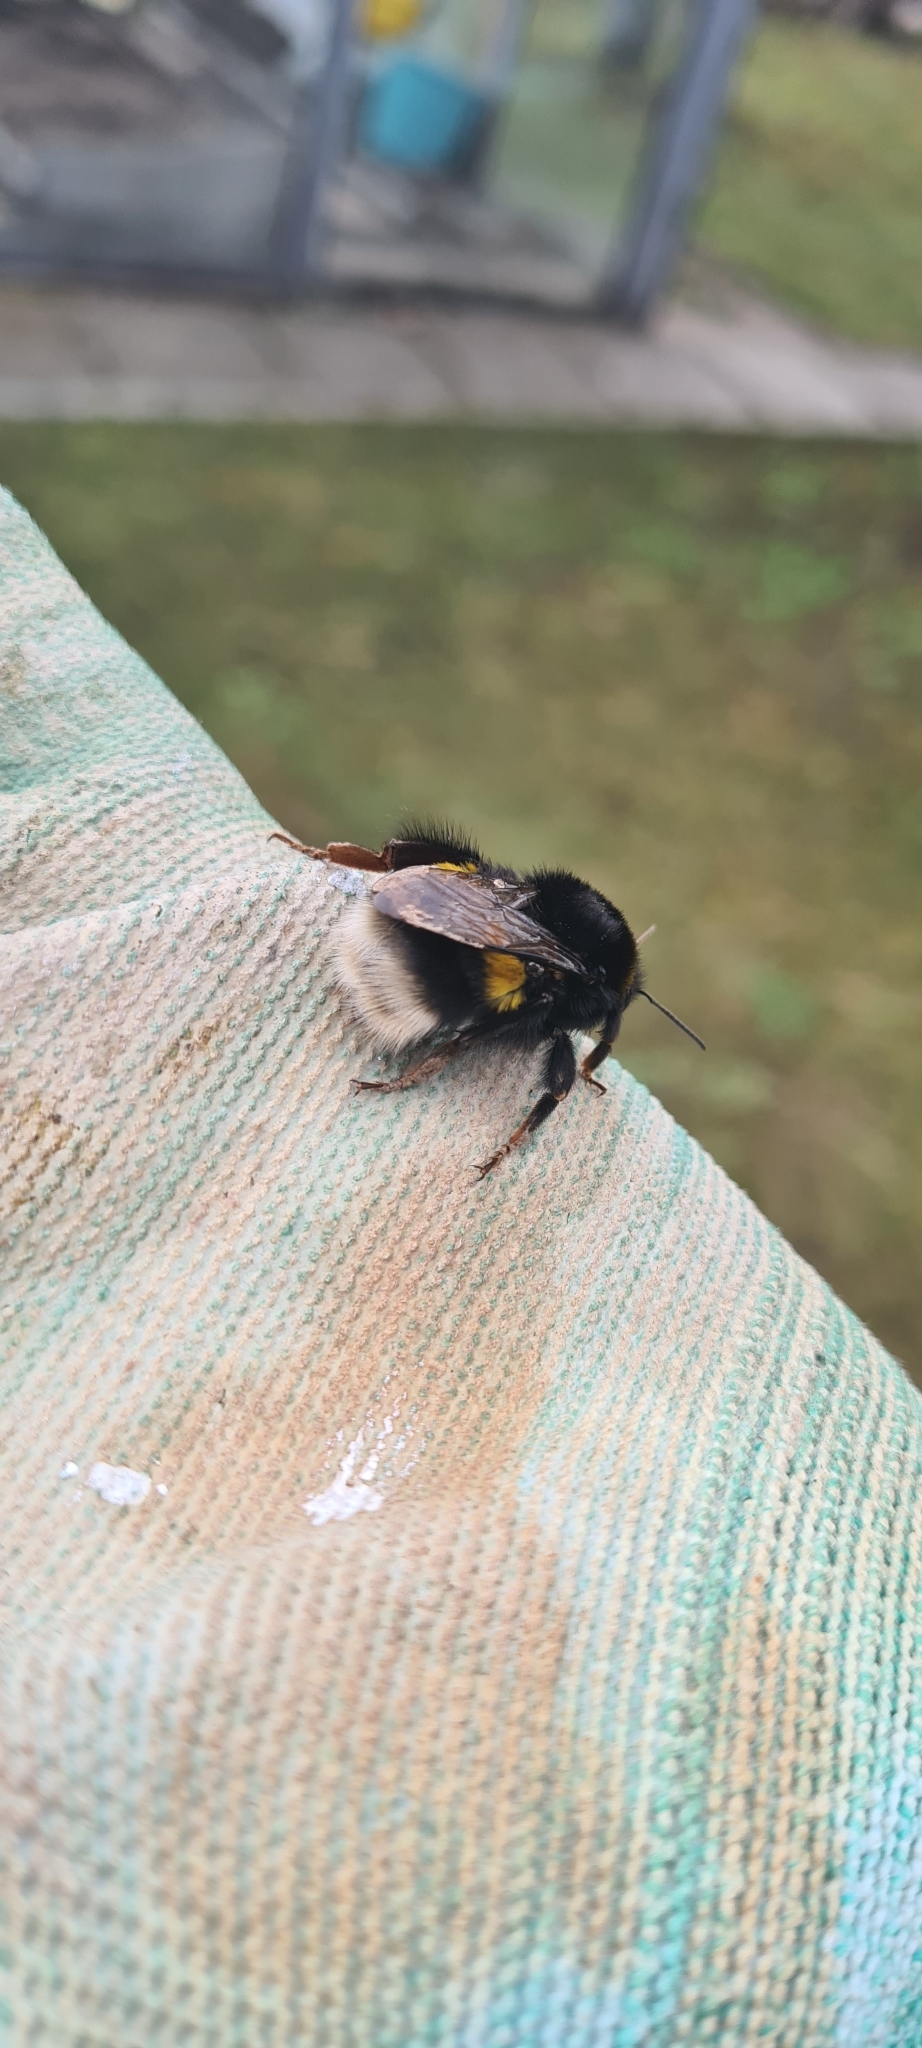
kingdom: Animalia
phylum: Arthropoda
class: Insecta
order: Hymenoptera
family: Apidae
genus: Bombus
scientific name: Bombus terrestris
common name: Buff-tailed bumblebee
